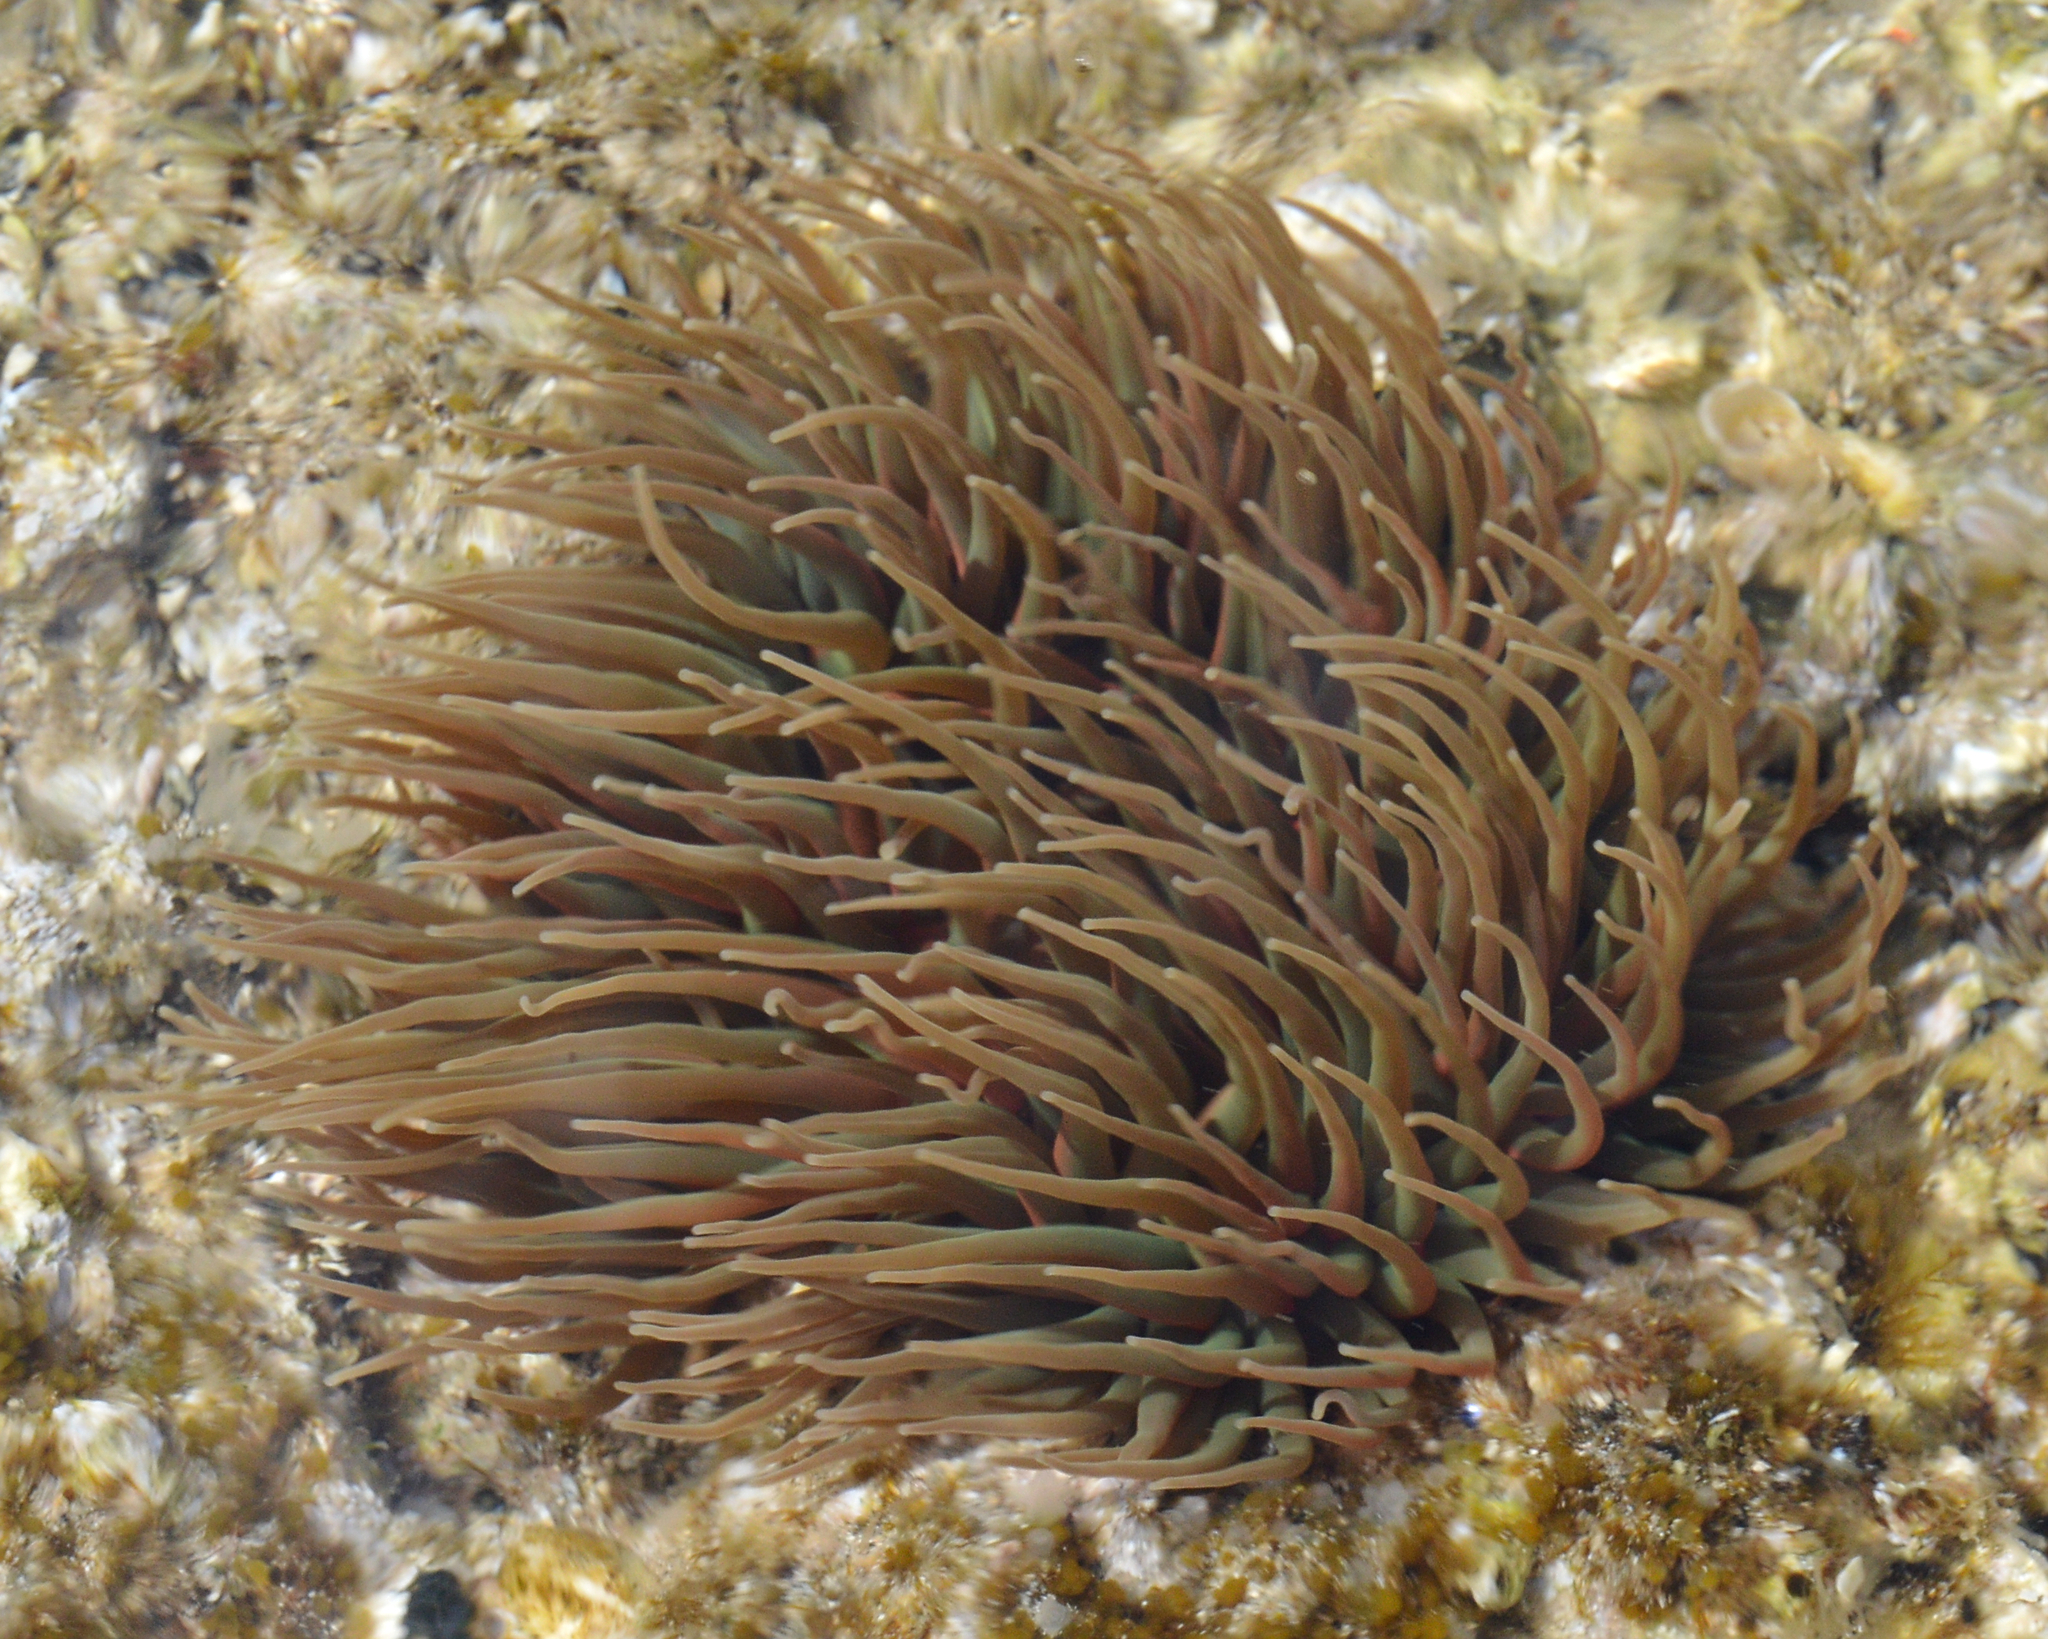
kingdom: Animalia
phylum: Cnidaria
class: Anthozoa
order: Actiniaria
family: Actiniidae
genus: Anemonia
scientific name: Anemonia viridis
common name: Snakelocks anemone
